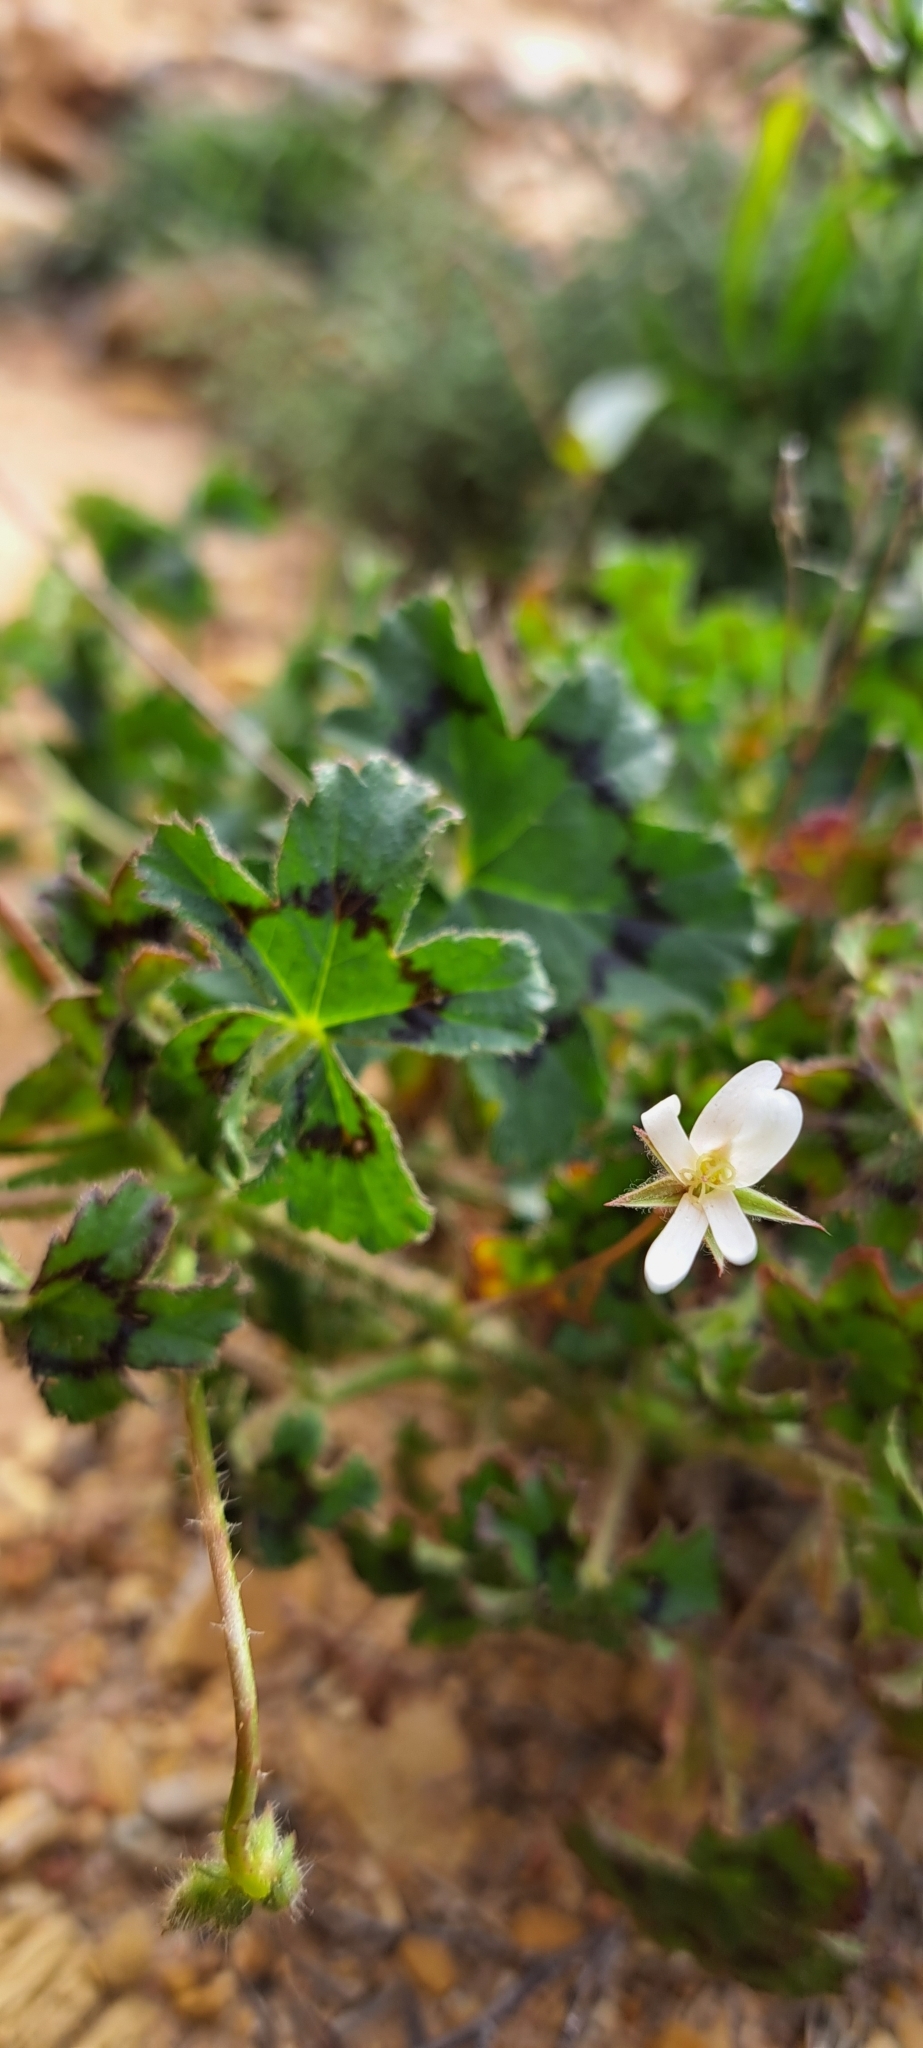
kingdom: Plantae
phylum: Tracheophyta
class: Magnoliopsida
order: Geraniales
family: Geraniaceae
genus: Pelargonium
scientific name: Pelargonium alchemilloides
